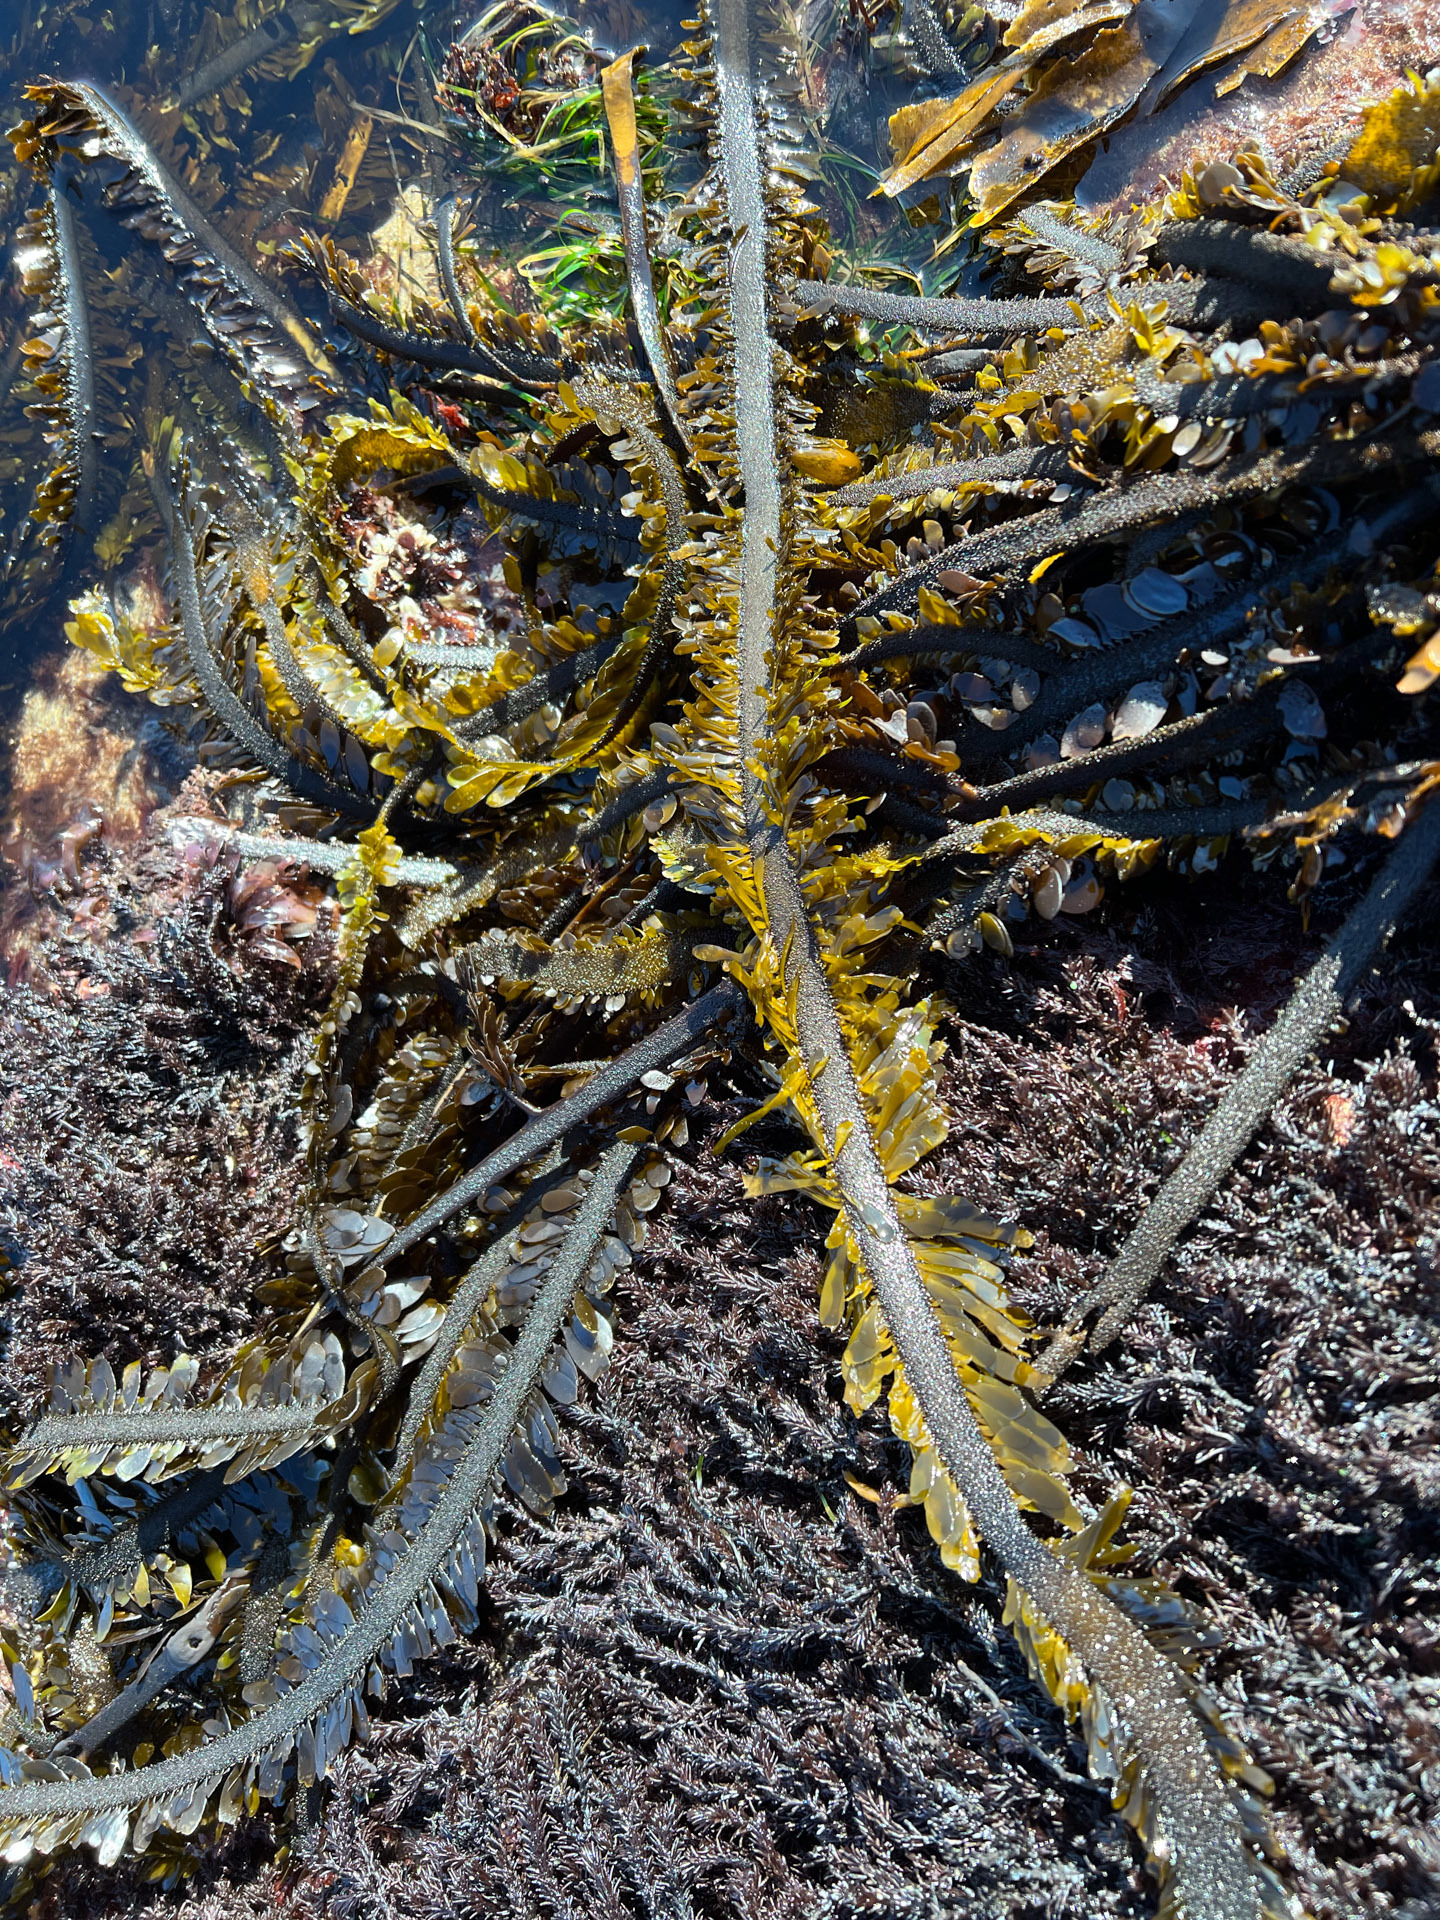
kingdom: Chromista
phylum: Ochrophyta
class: Phaeophyceae
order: Laminariales
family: Lessoniaceae
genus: Egregia
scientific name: Egregia menziesii
